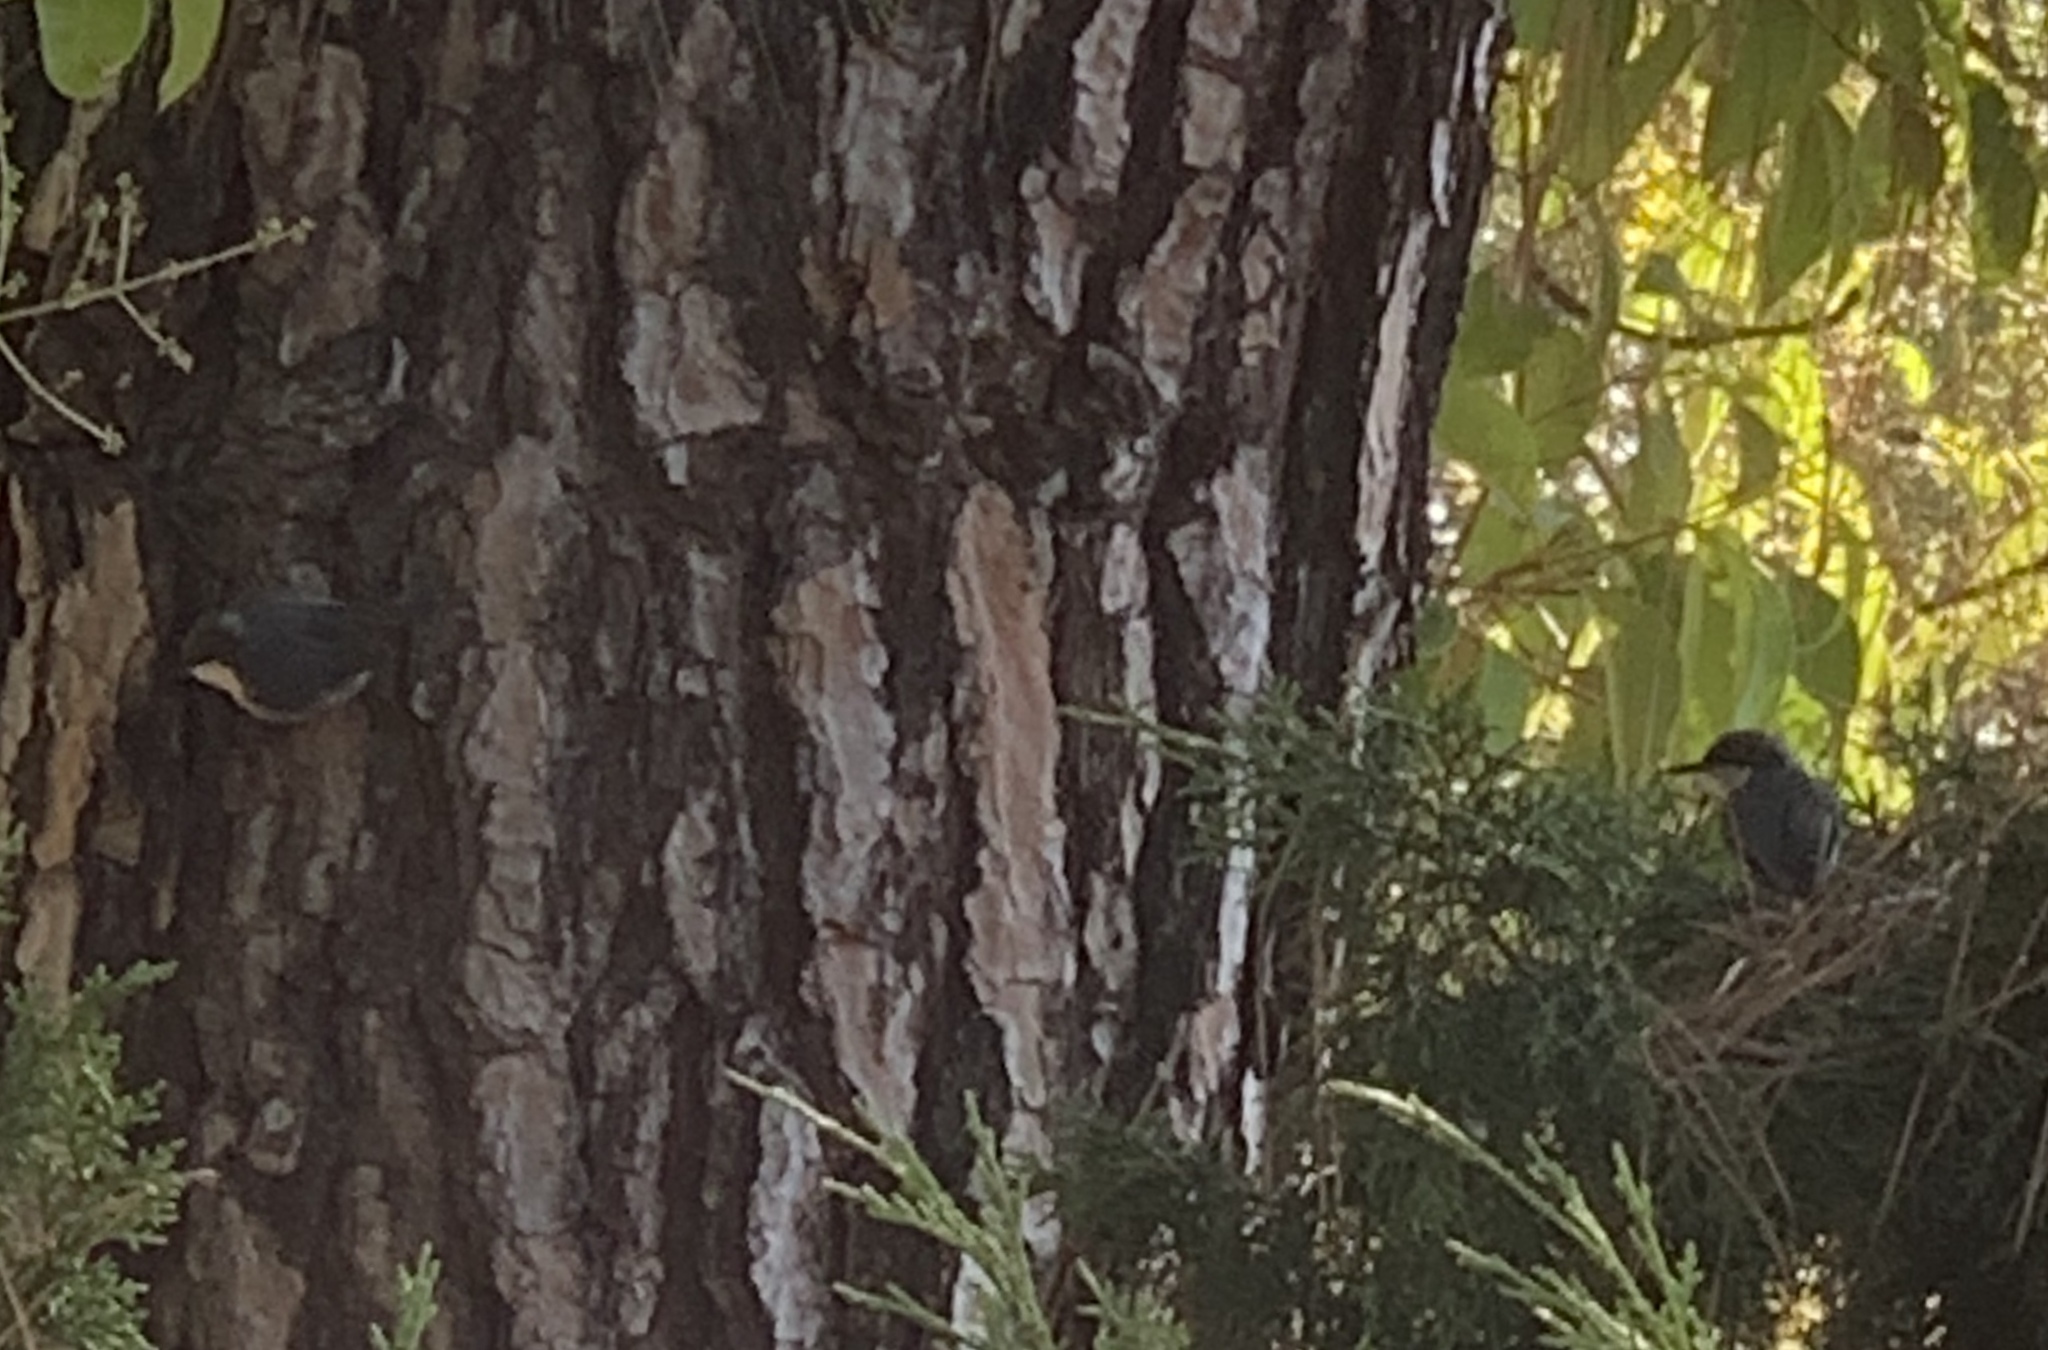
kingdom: Animalia
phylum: Chordata
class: Aves
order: Passeriformes
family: Sittidae
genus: Sitta
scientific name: Sitta pygmaea
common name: Pygmy nuthatch
